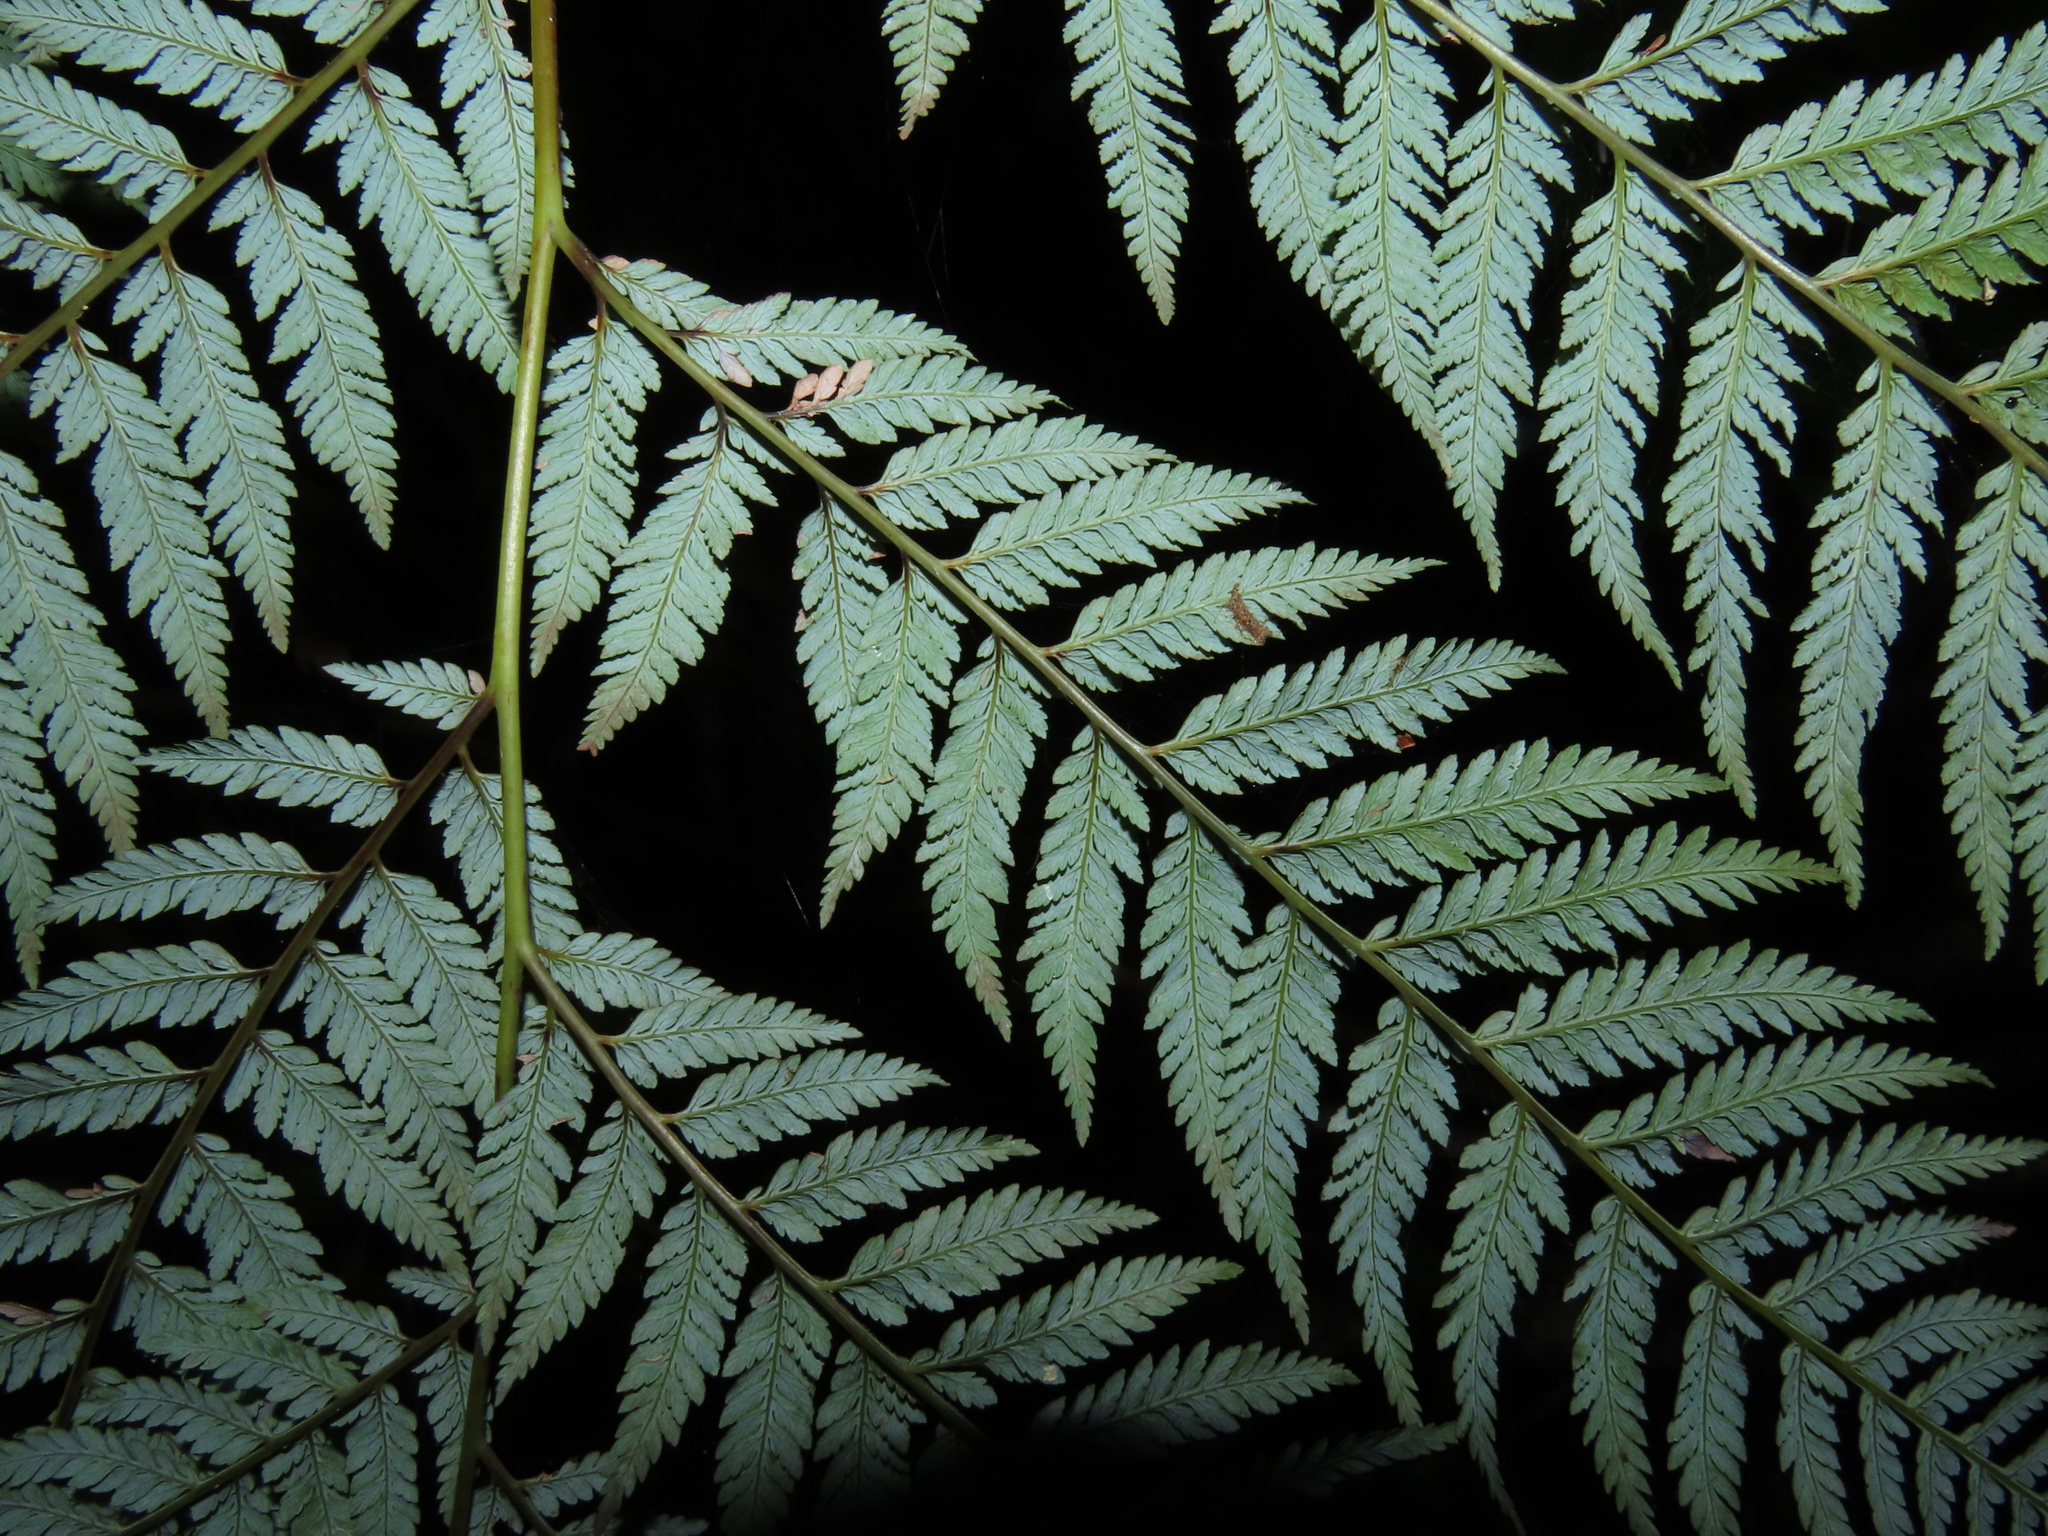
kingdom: Plantae
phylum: Tracheophyta
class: Polypodiopsida
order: Cyatheales
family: Dicksoniaceae
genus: Lophosoria
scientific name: Lophosoria quadripinnata
